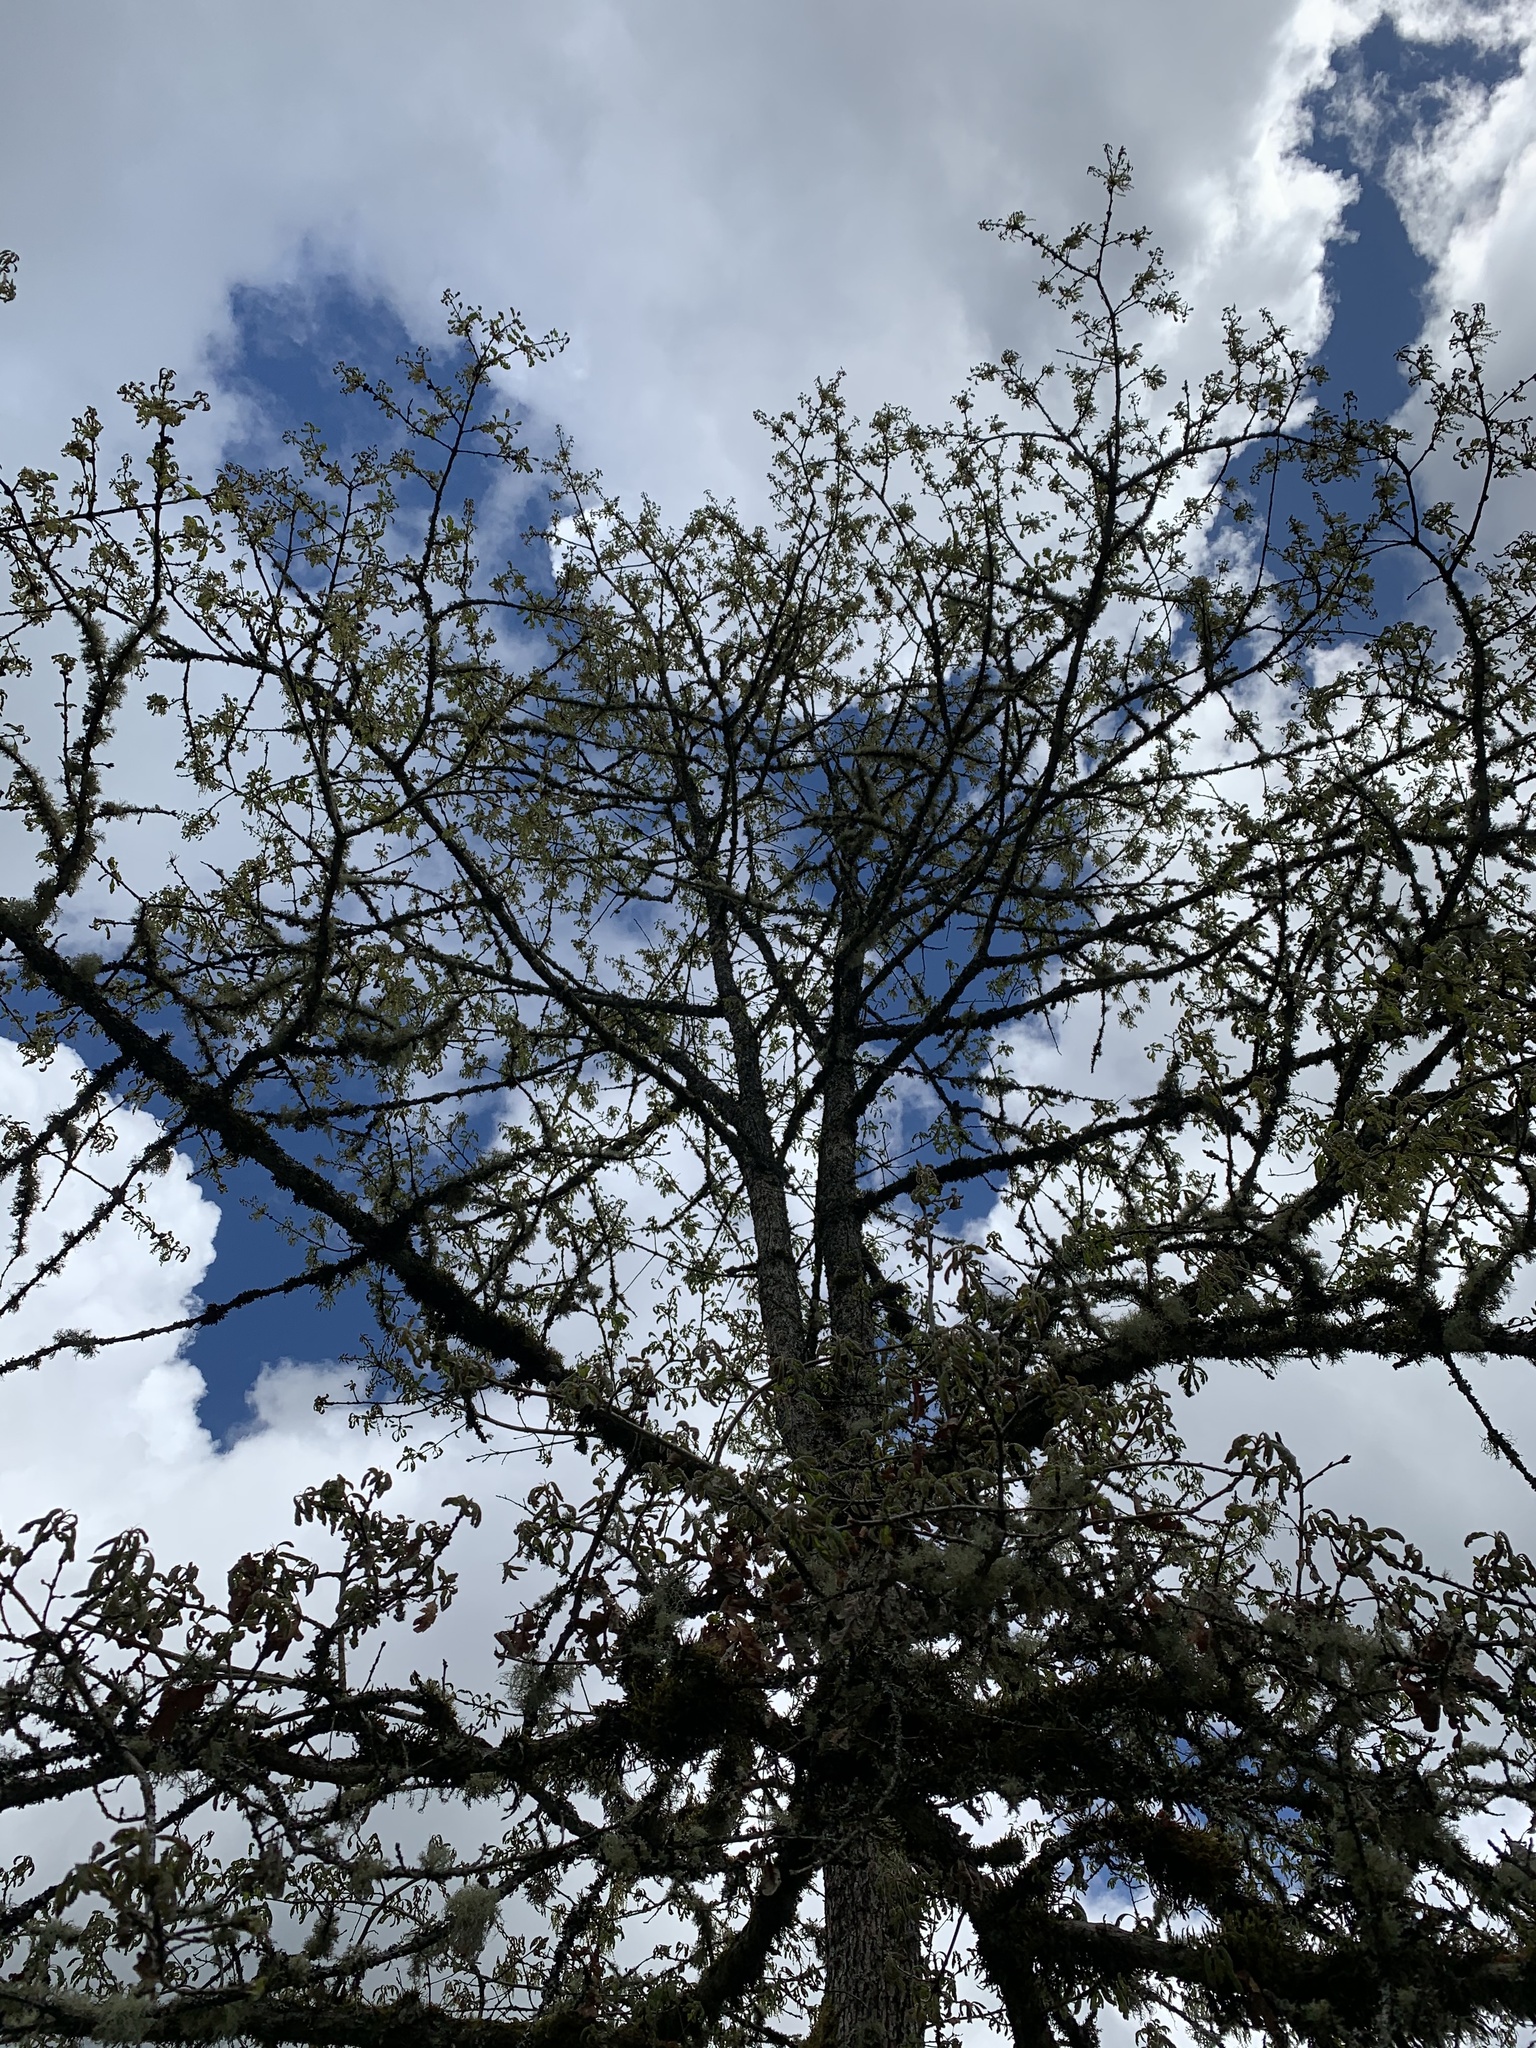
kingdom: Plantae
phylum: Tracheophyta
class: Magnoliopsida
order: Fagales
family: Fagaceae
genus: Quercus
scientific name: Quercus garryana
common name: Garry oak
